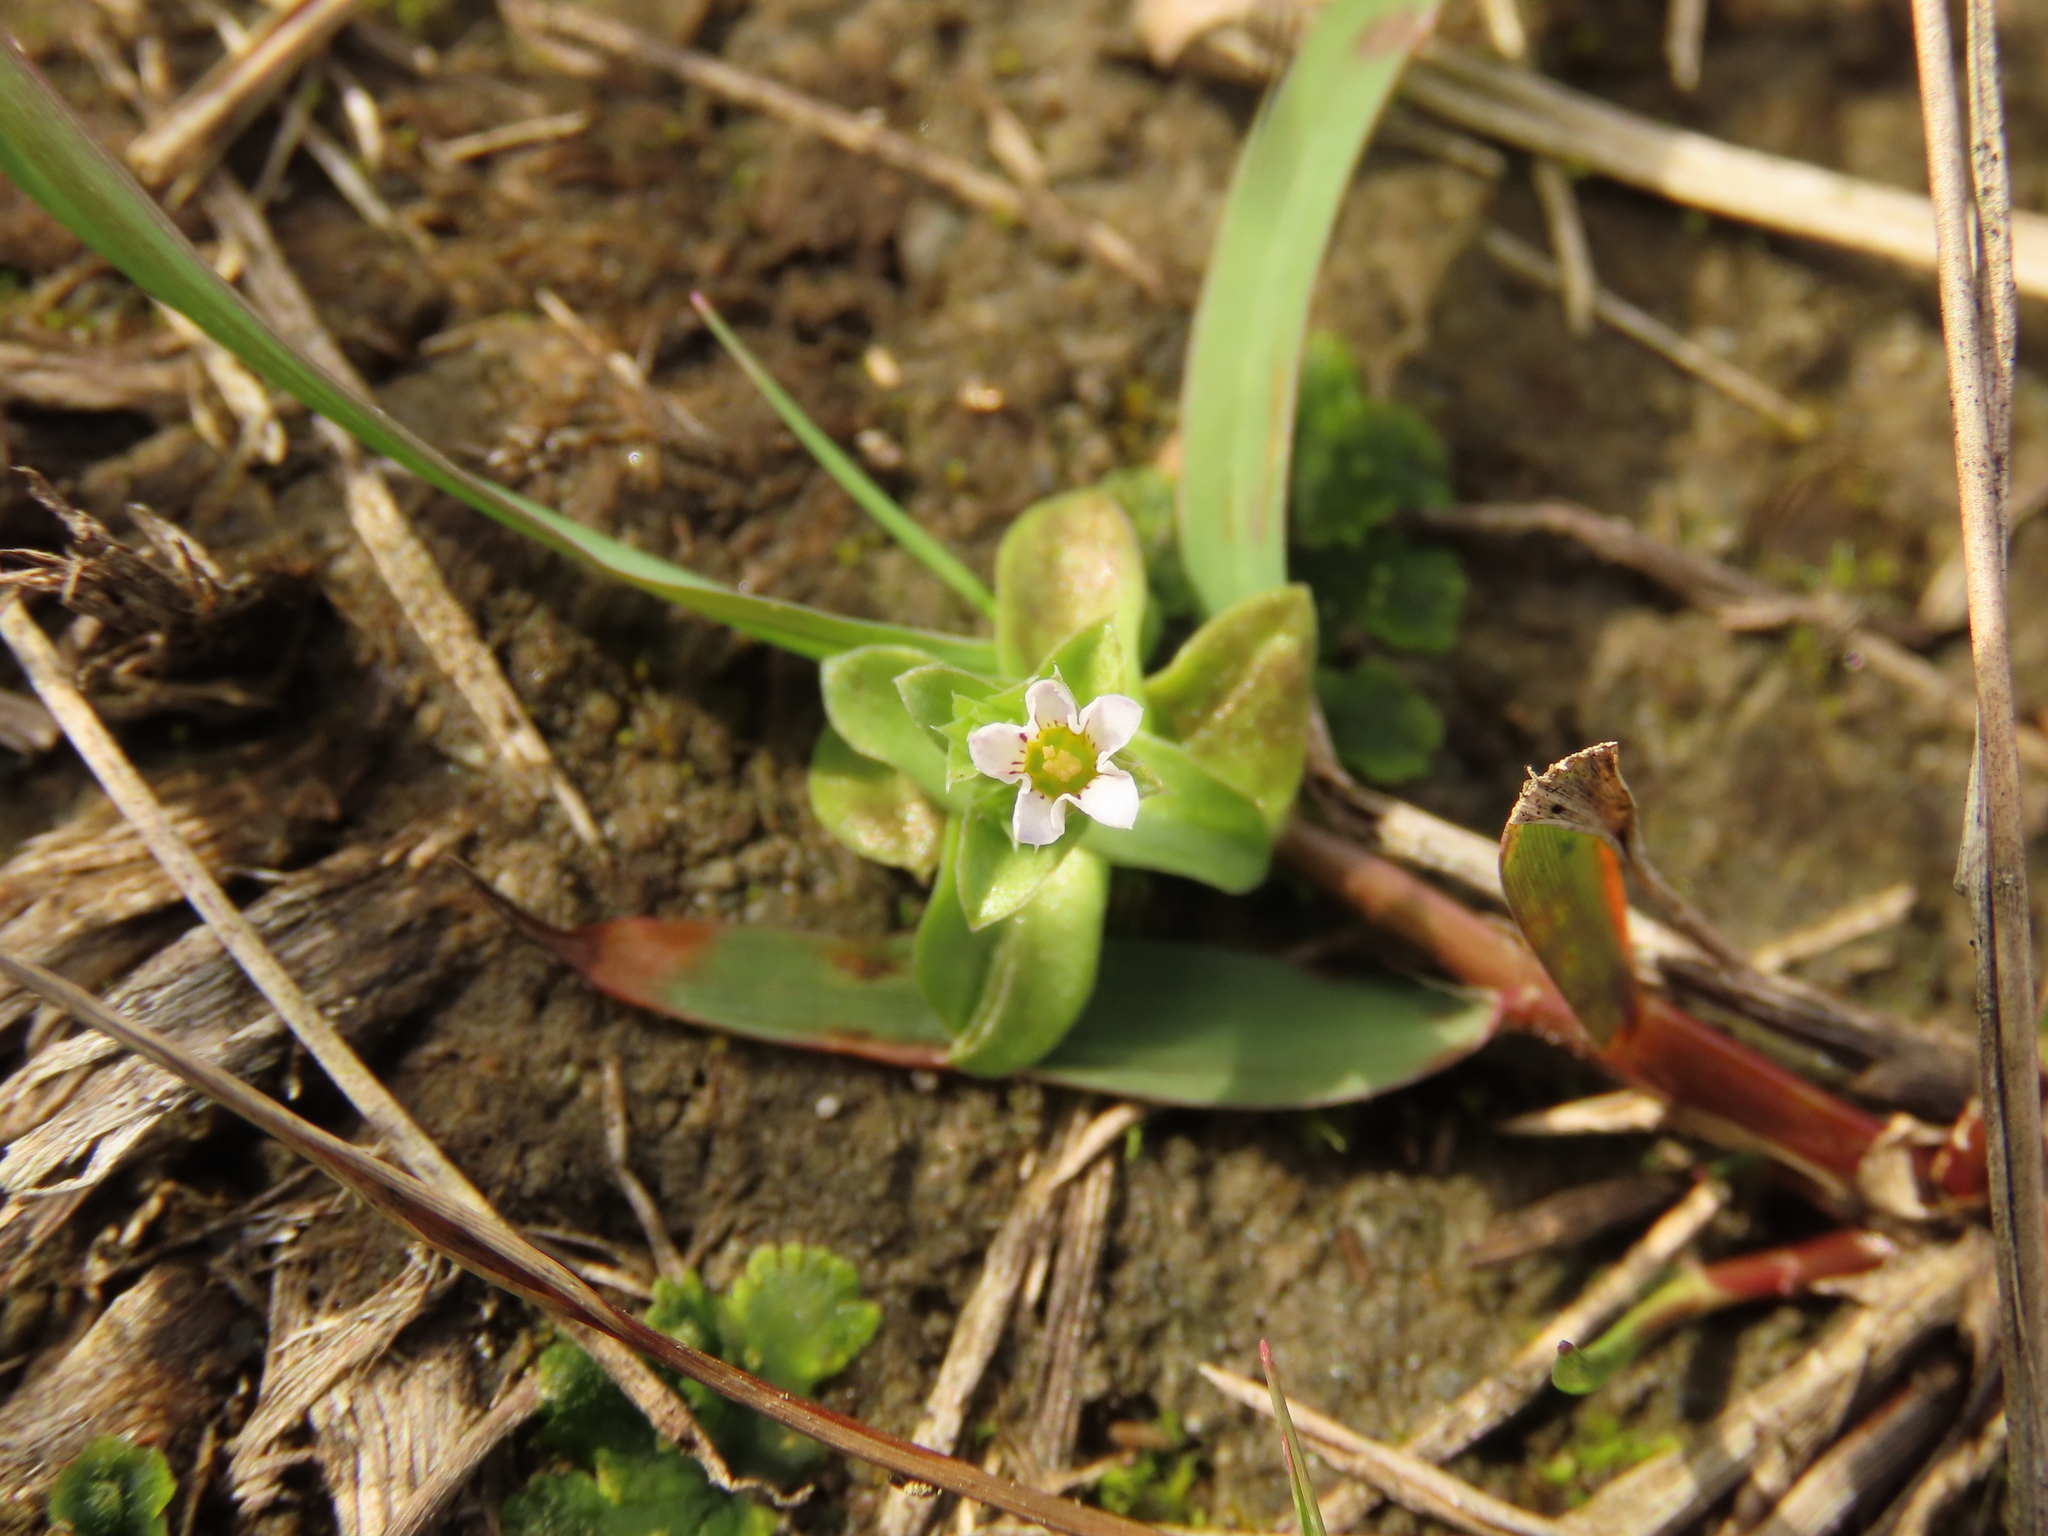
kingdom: Plantae
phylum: Tracheophyta
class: Magnoliopsida
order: Gentianales
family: Gentianaceae
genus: Gentiana
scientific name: Gentiana yokusai
